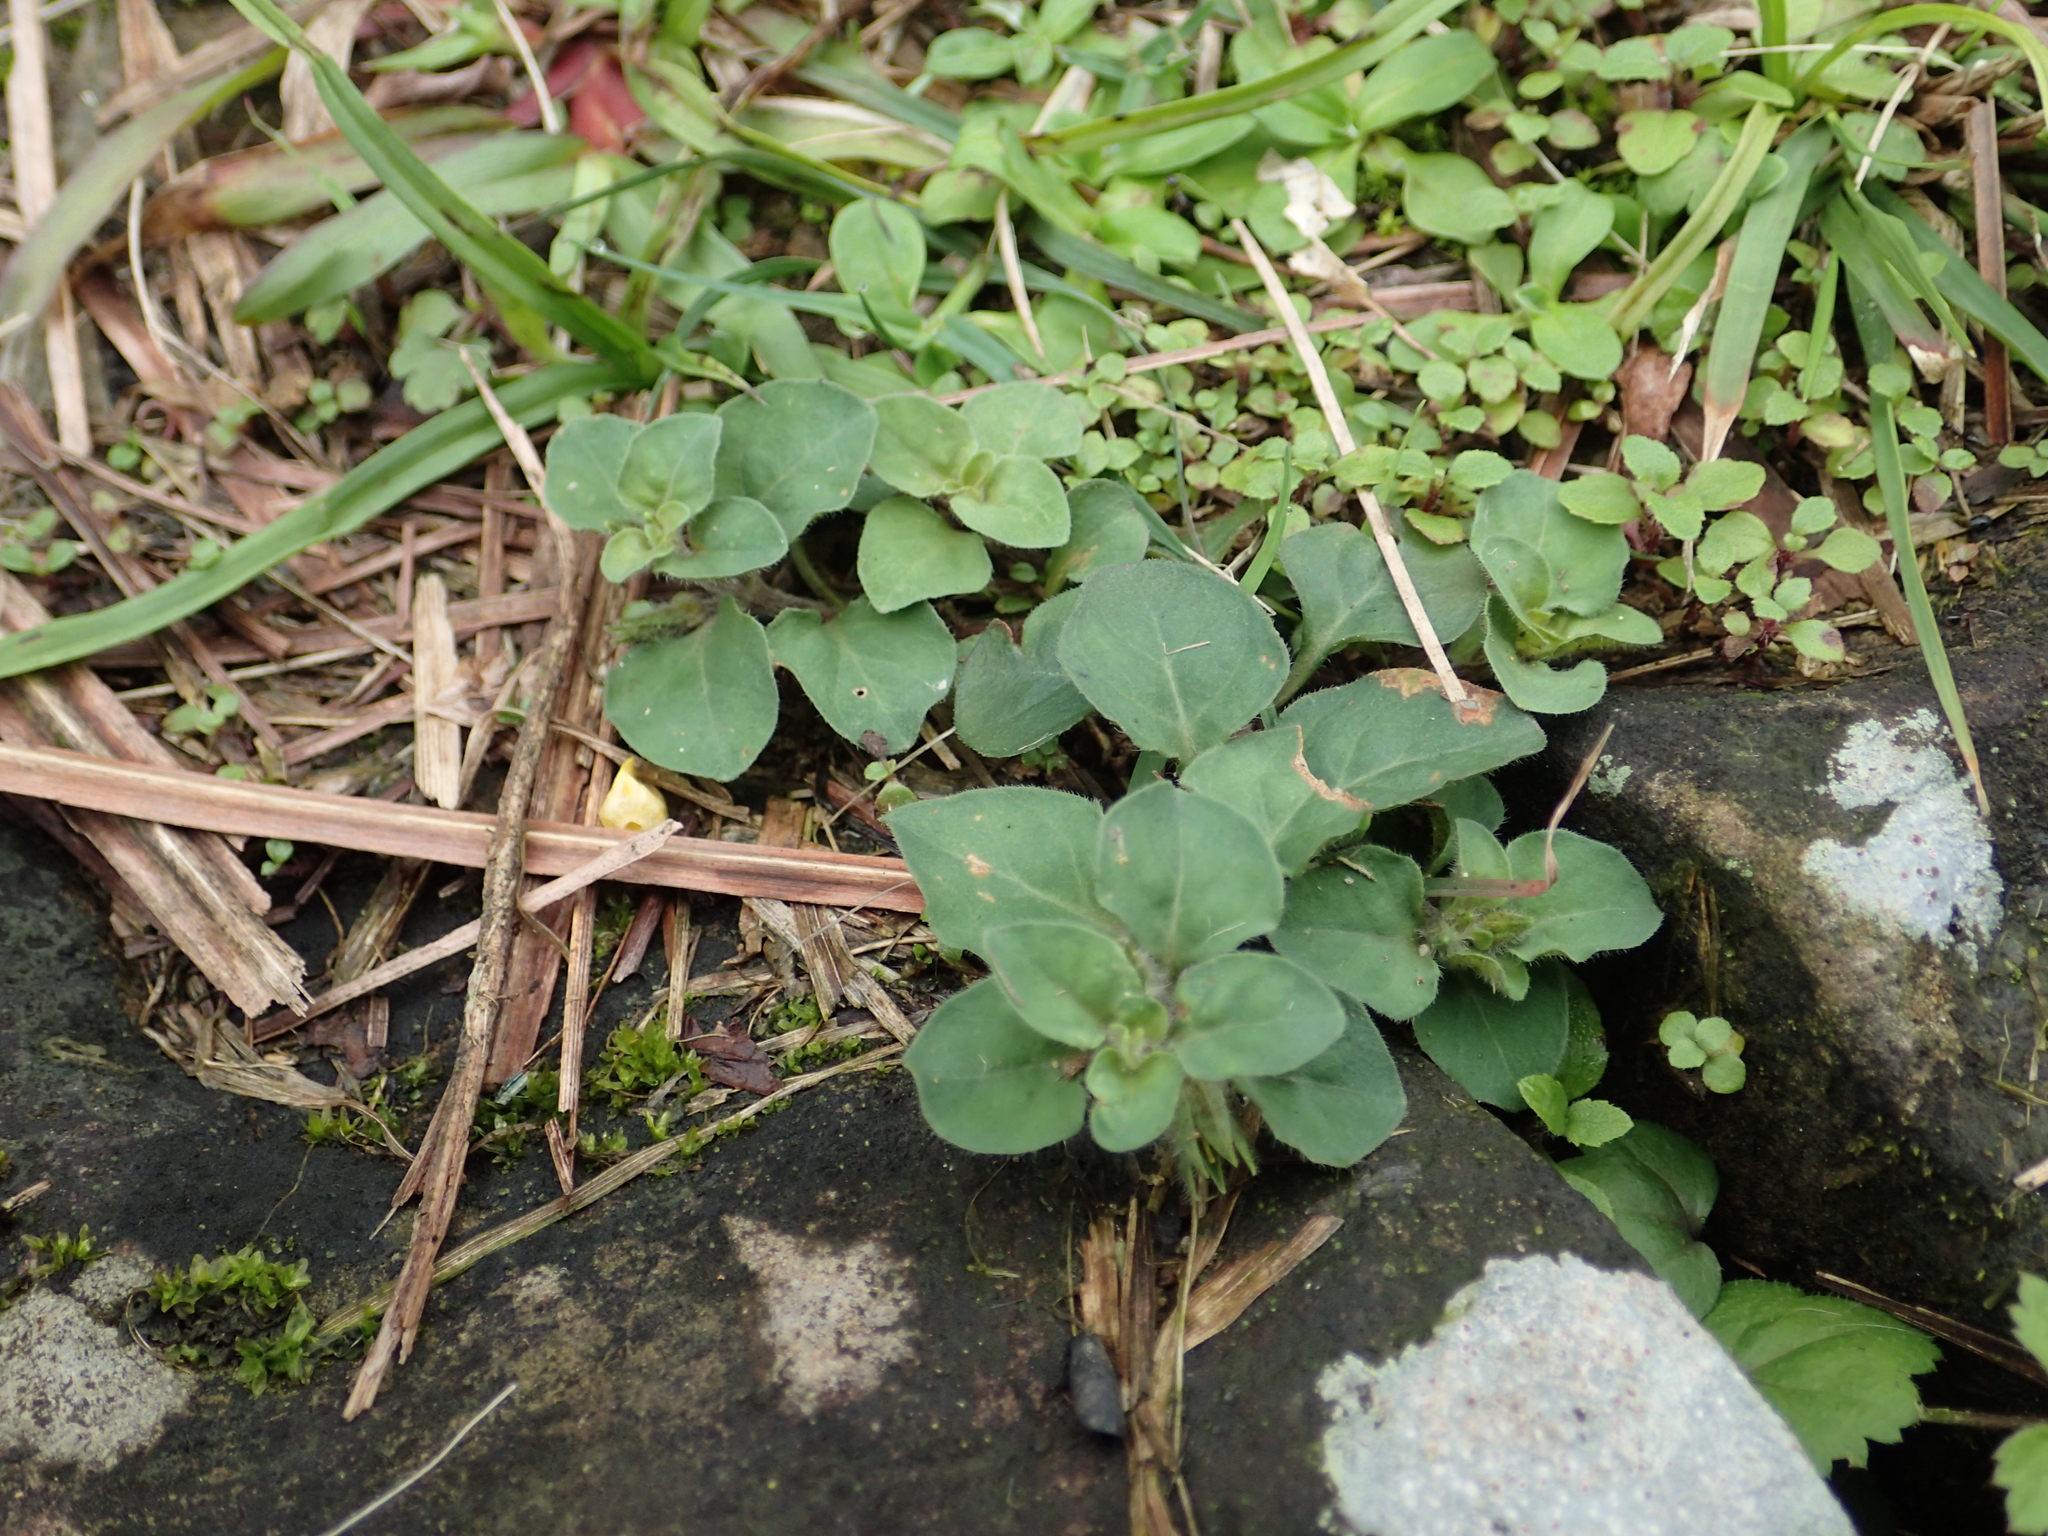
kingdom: Plantae
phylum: Tracheophyta
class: Magnoliopsida
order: Ericales
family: Primulaceae
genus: Lysimachia
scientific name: Lysimachia japonica
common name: Japanese yellow loosestrife
